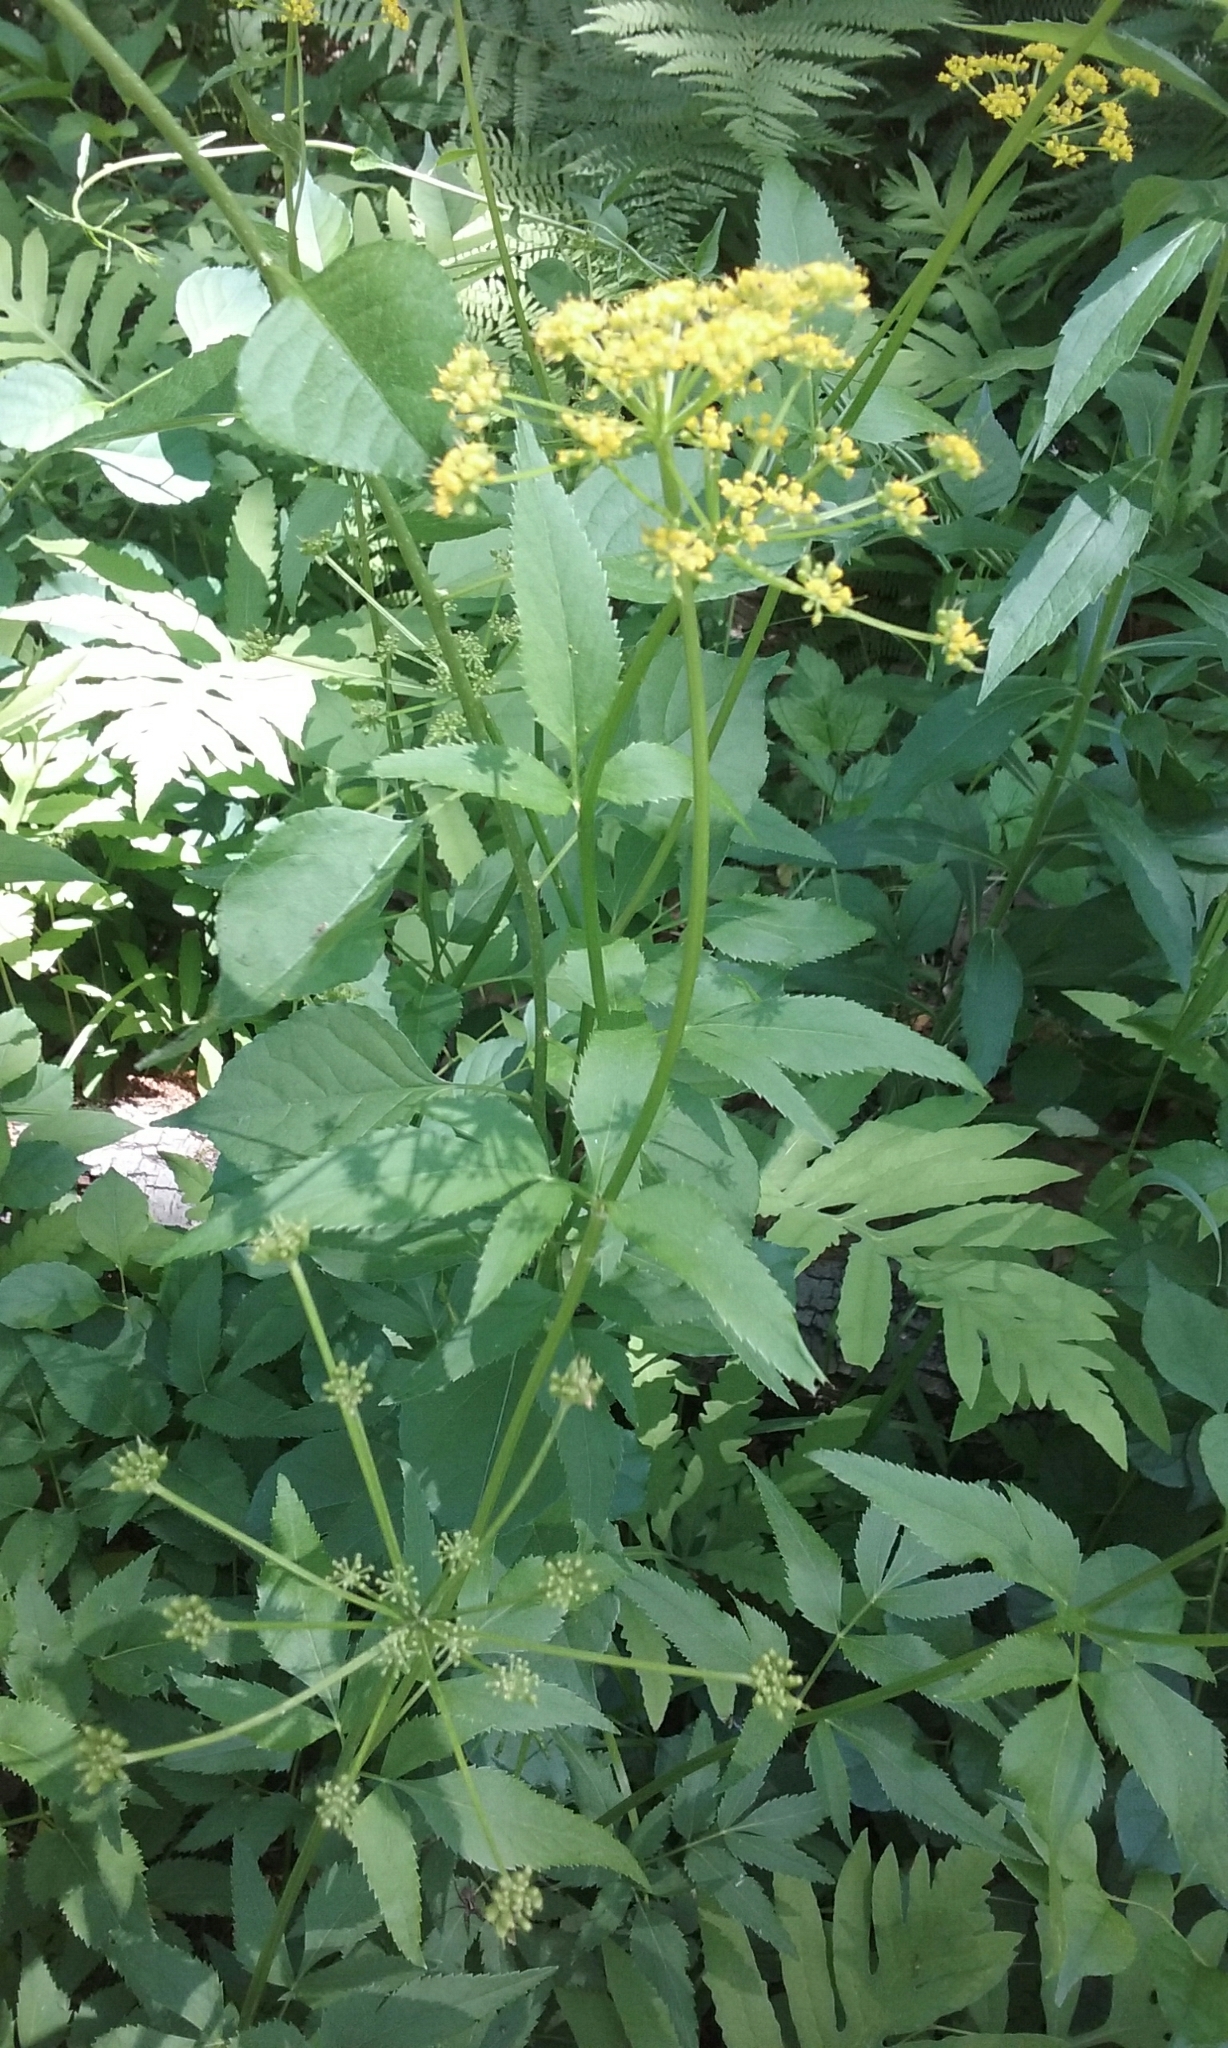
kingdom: Plantae
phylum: Tracheophyta
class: Magnoliopsida
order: Apiales
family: Apiaceae
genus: Zizia
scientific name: Zizia aurea
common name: Golden alexanders
